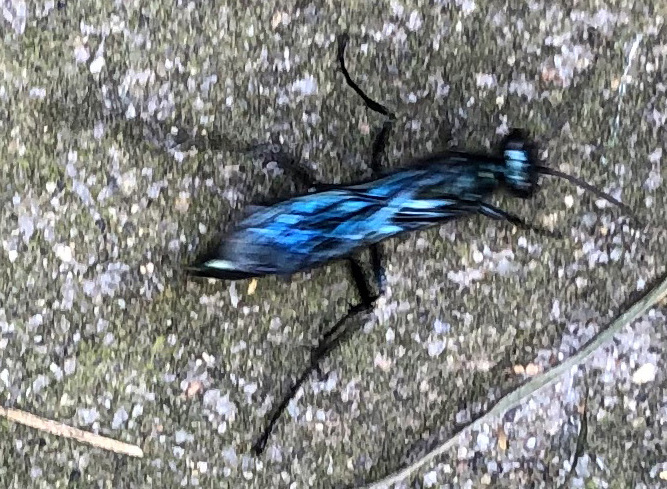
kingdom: Animalia
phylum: Arthropoda
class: Insecta
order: Hymenoptera
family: Sphecidae
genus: Chalybion
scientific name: Chalybion californicum
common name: Mud dauber
